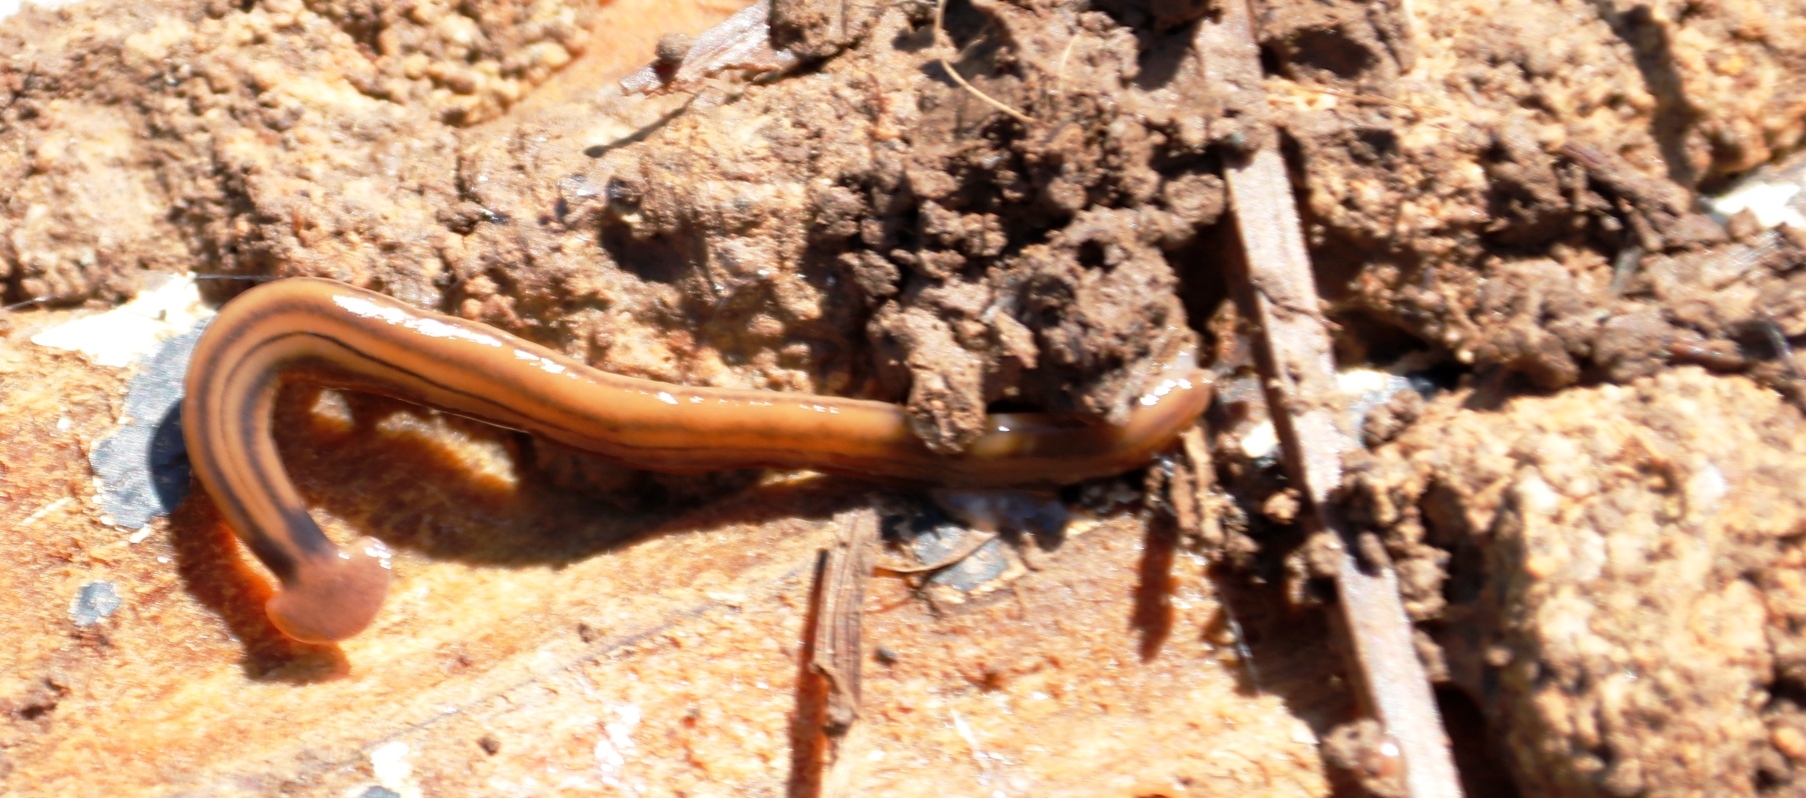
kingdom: Animalia
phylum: Platyhelminthes
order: Tricladida
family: Geoplanidae
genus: Bipalium
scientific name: Bipalium kewense
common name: Hammerhead flatworm
